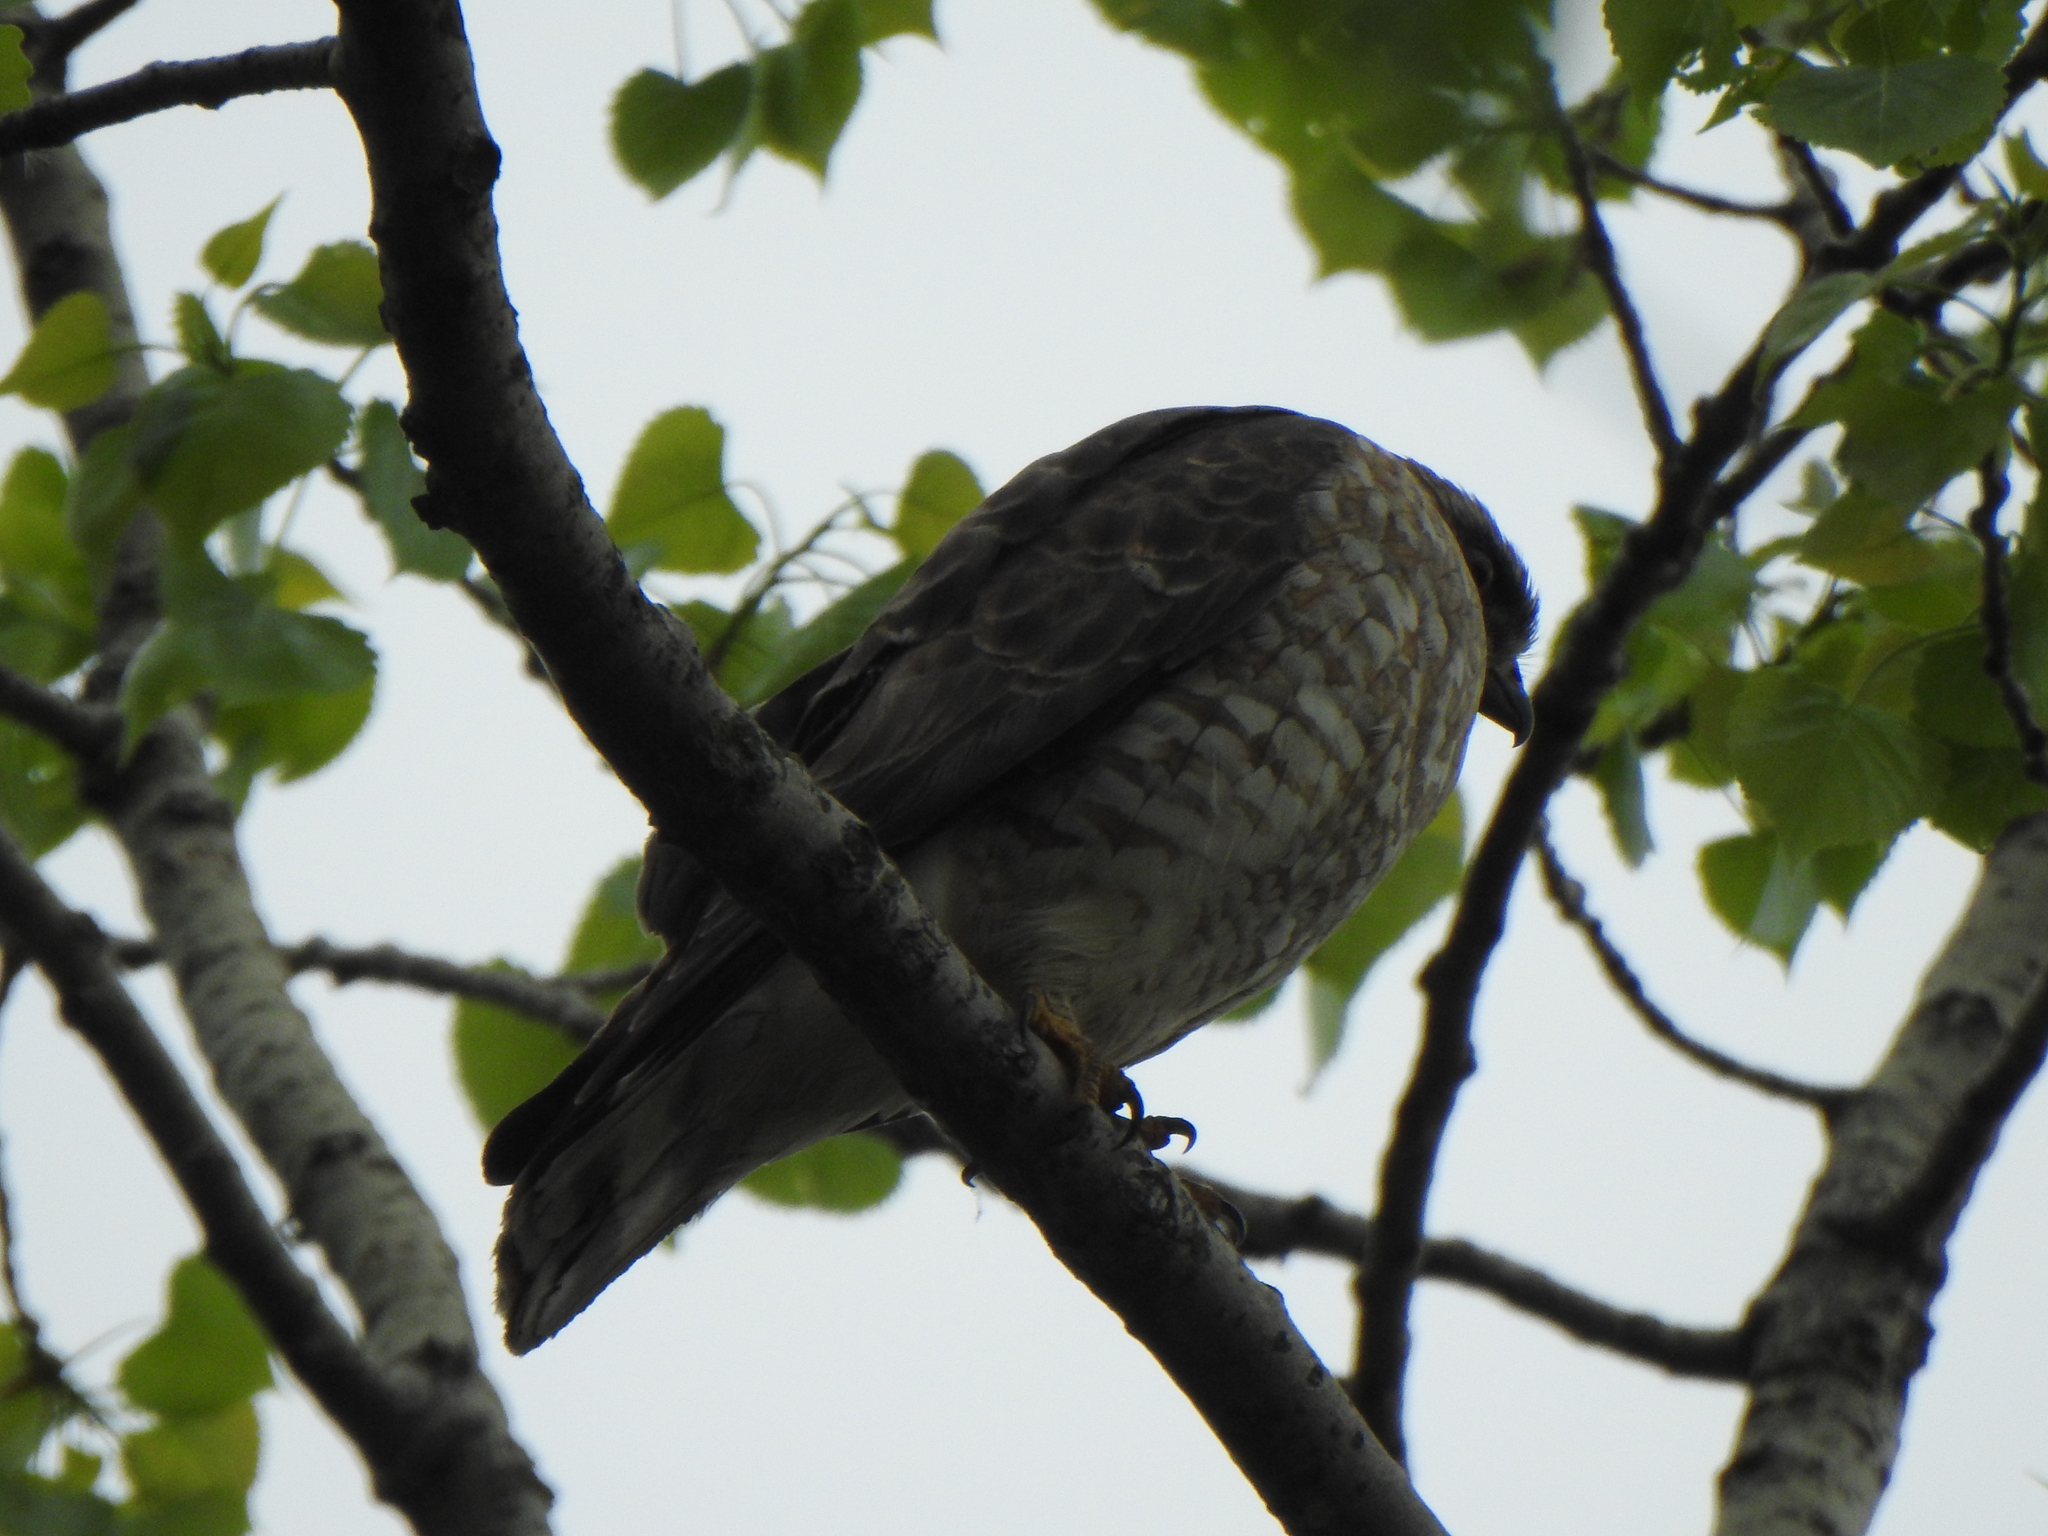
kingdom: Animalia
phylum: Chordata
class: Aves
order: Accipitriformes
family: Accipitridae
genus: Buteo
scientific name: Buteo platypterus
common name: Broad-winged hawk
